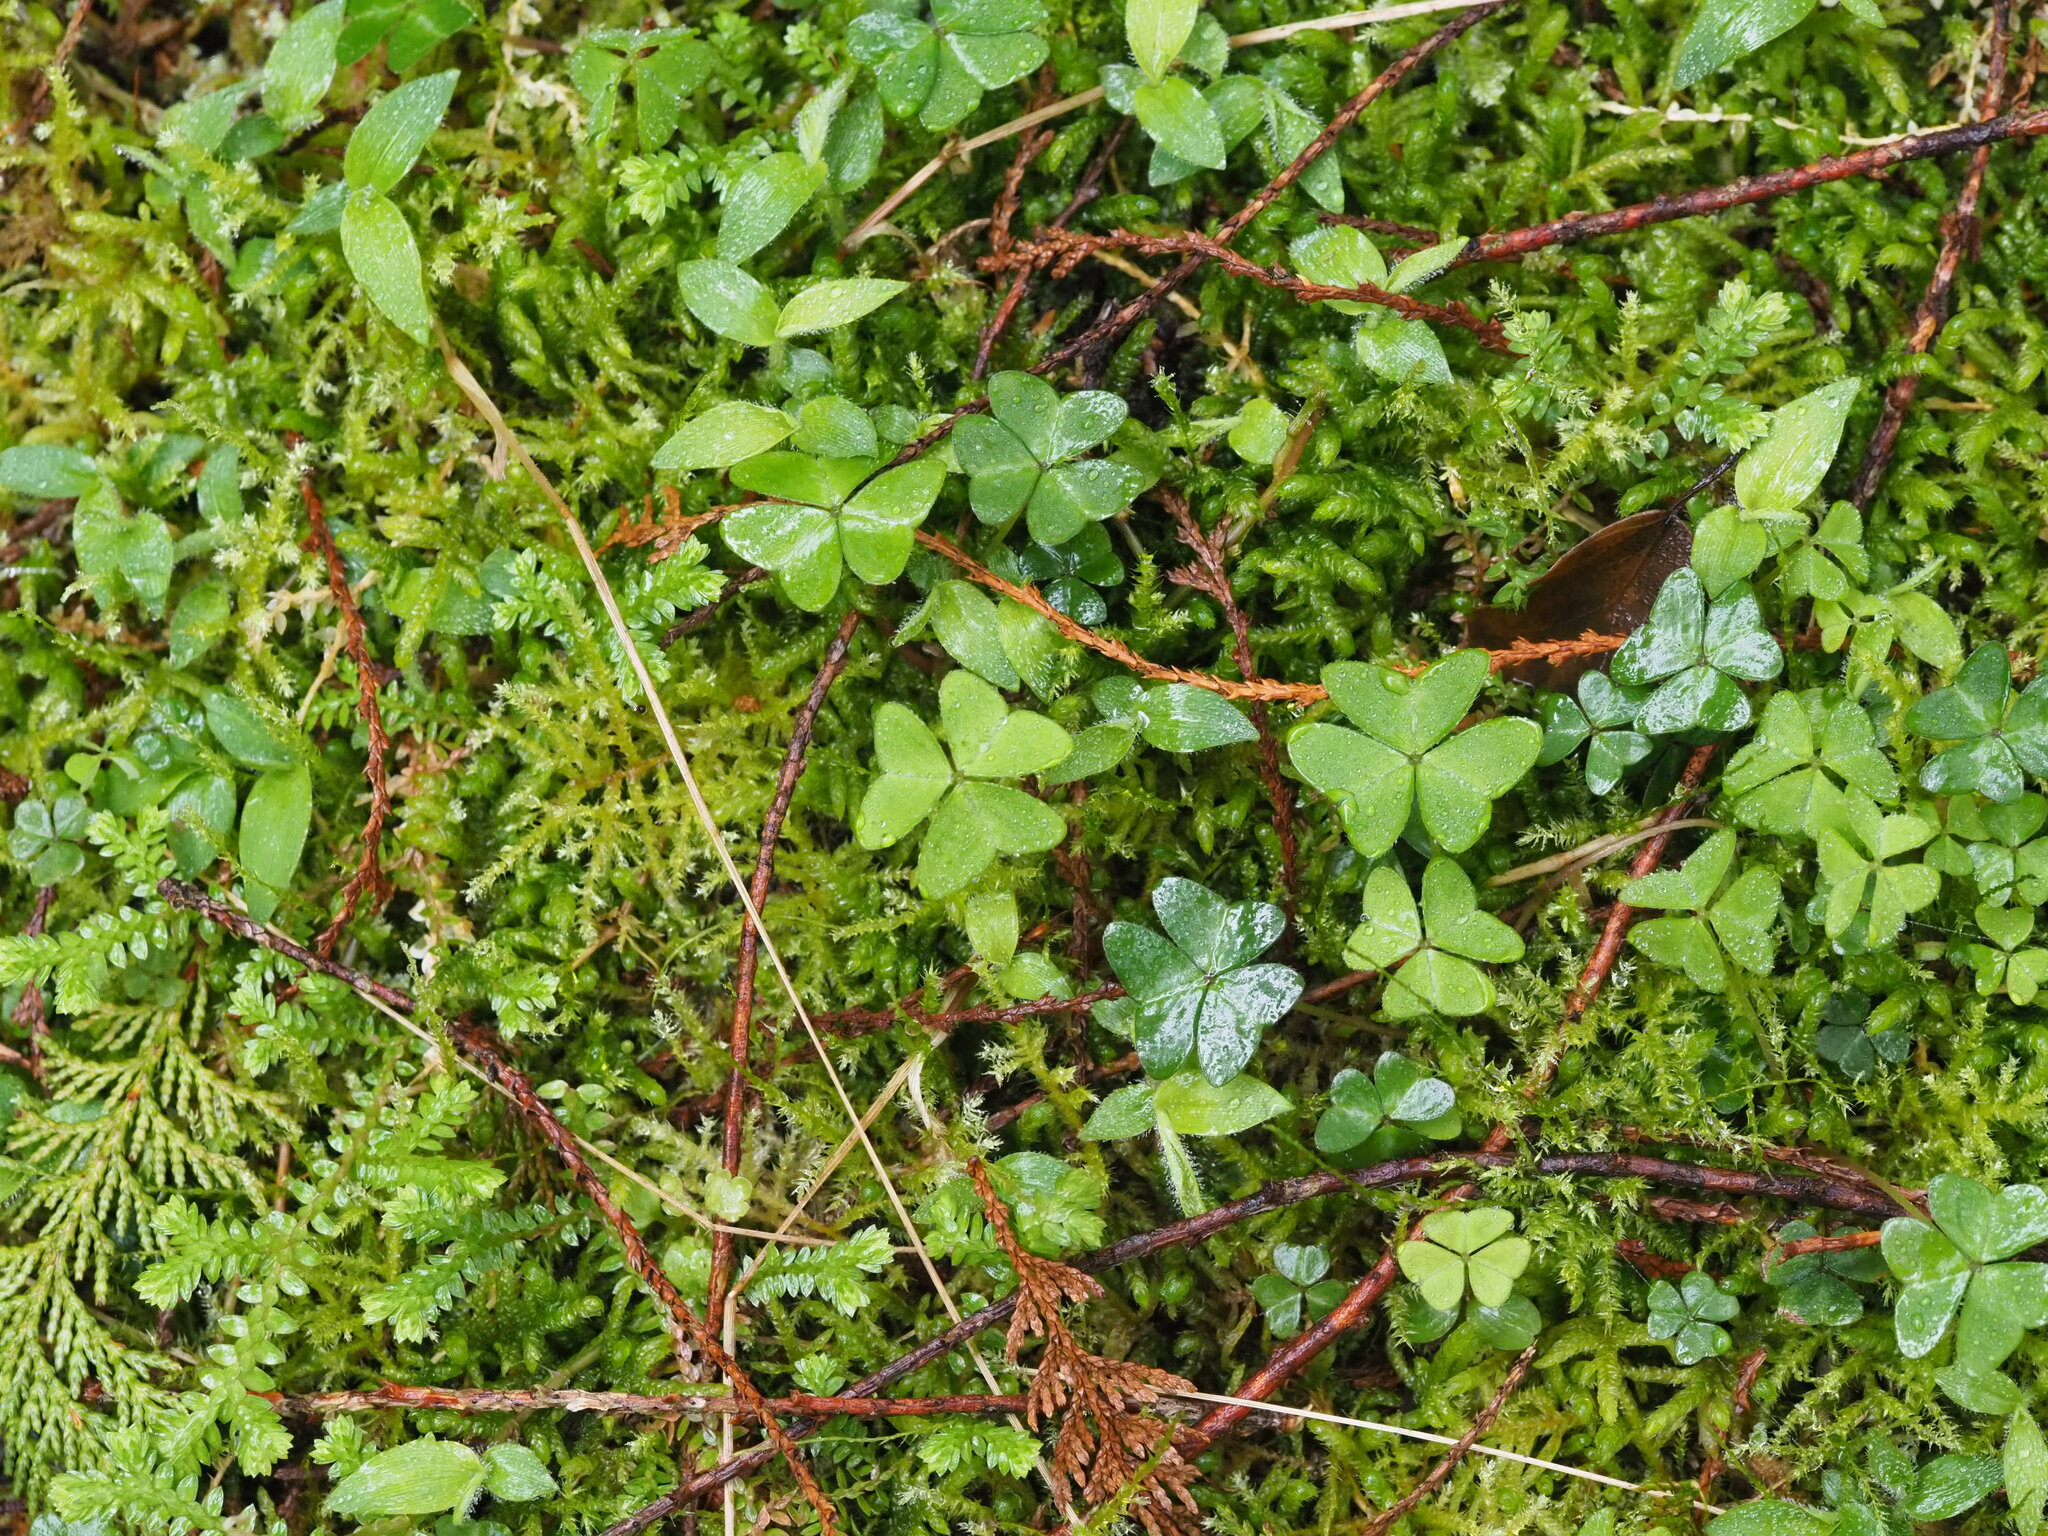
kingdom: Plantae
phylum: Tracheophyta
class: Magnoliopsida
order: Oxalidales
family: Oxalidaceae
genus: Oxalis
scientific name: Oxalis griffithii
